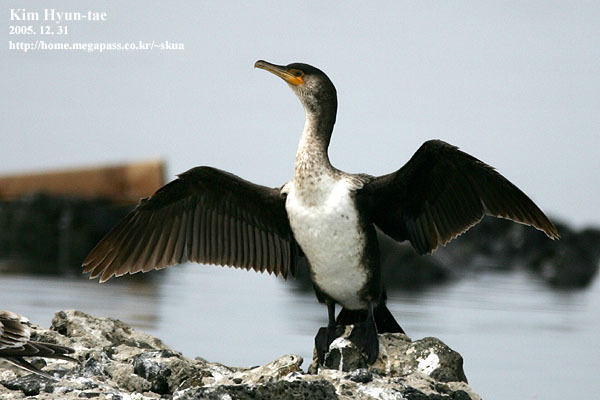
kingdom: Animalia
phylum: Chordata
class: Aves
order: Suliformes
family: Phalacrocoracidae
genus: Phalacrocorax
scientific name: Phalacrocorax capillatus
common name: Japanese cormorant
